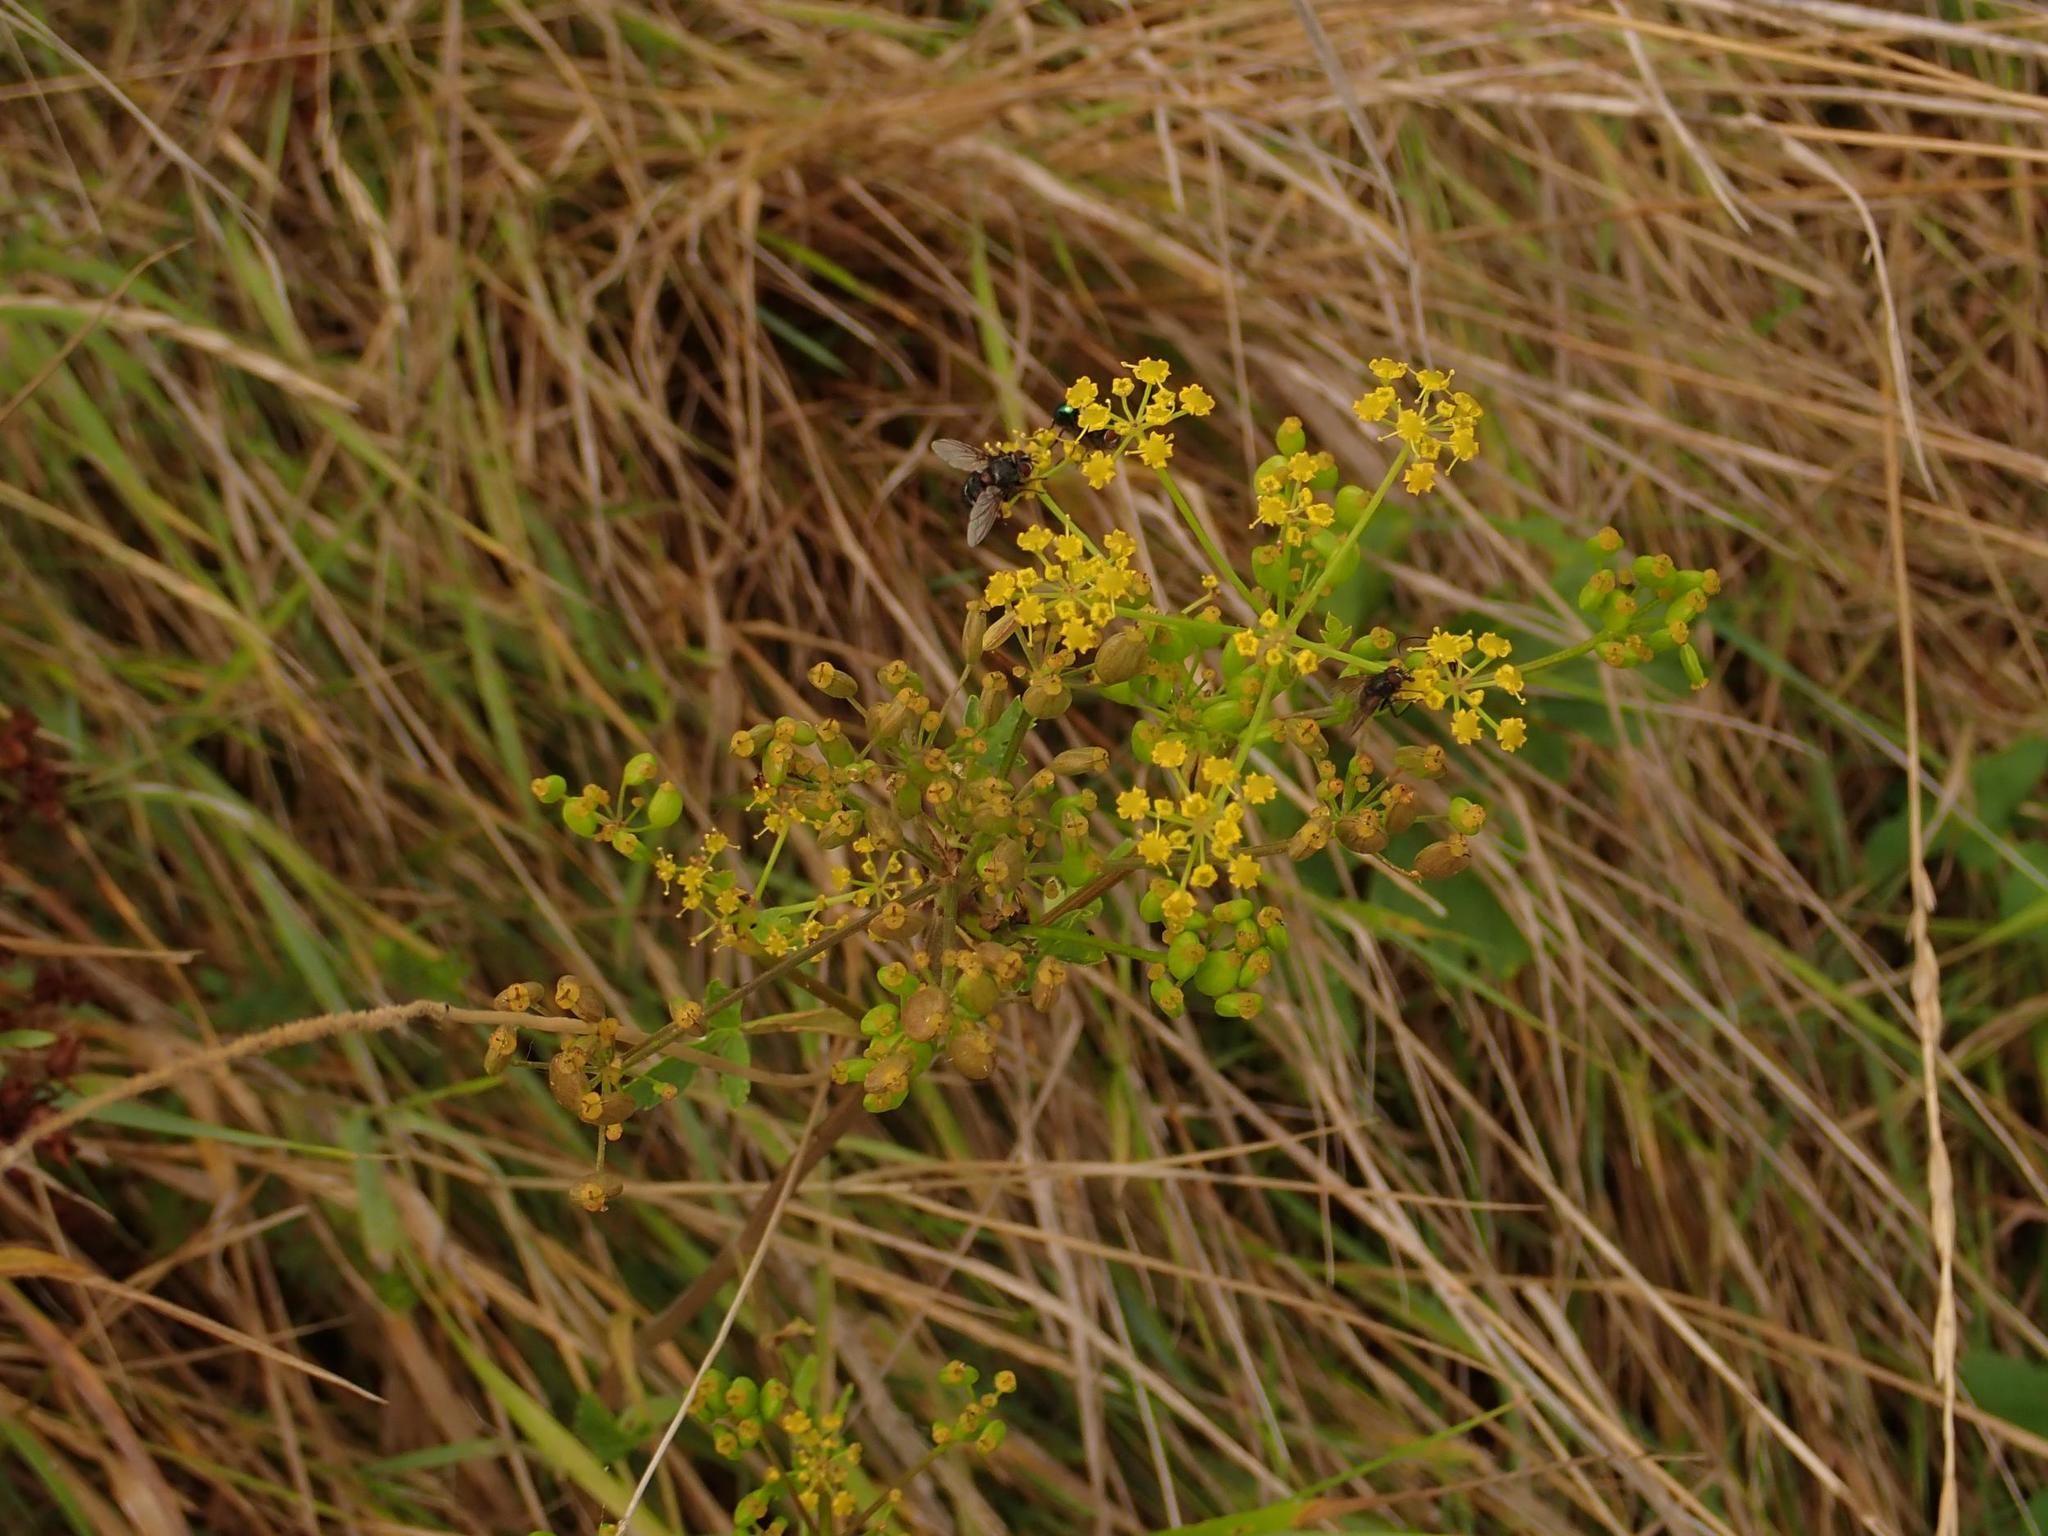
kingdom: Plantae
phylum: Tracheophyta
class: Magnoliopsida
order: Apiales
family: Apiaceae
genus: Pastinaca
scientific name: Pastinaca sativa
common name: Wild parsnip
